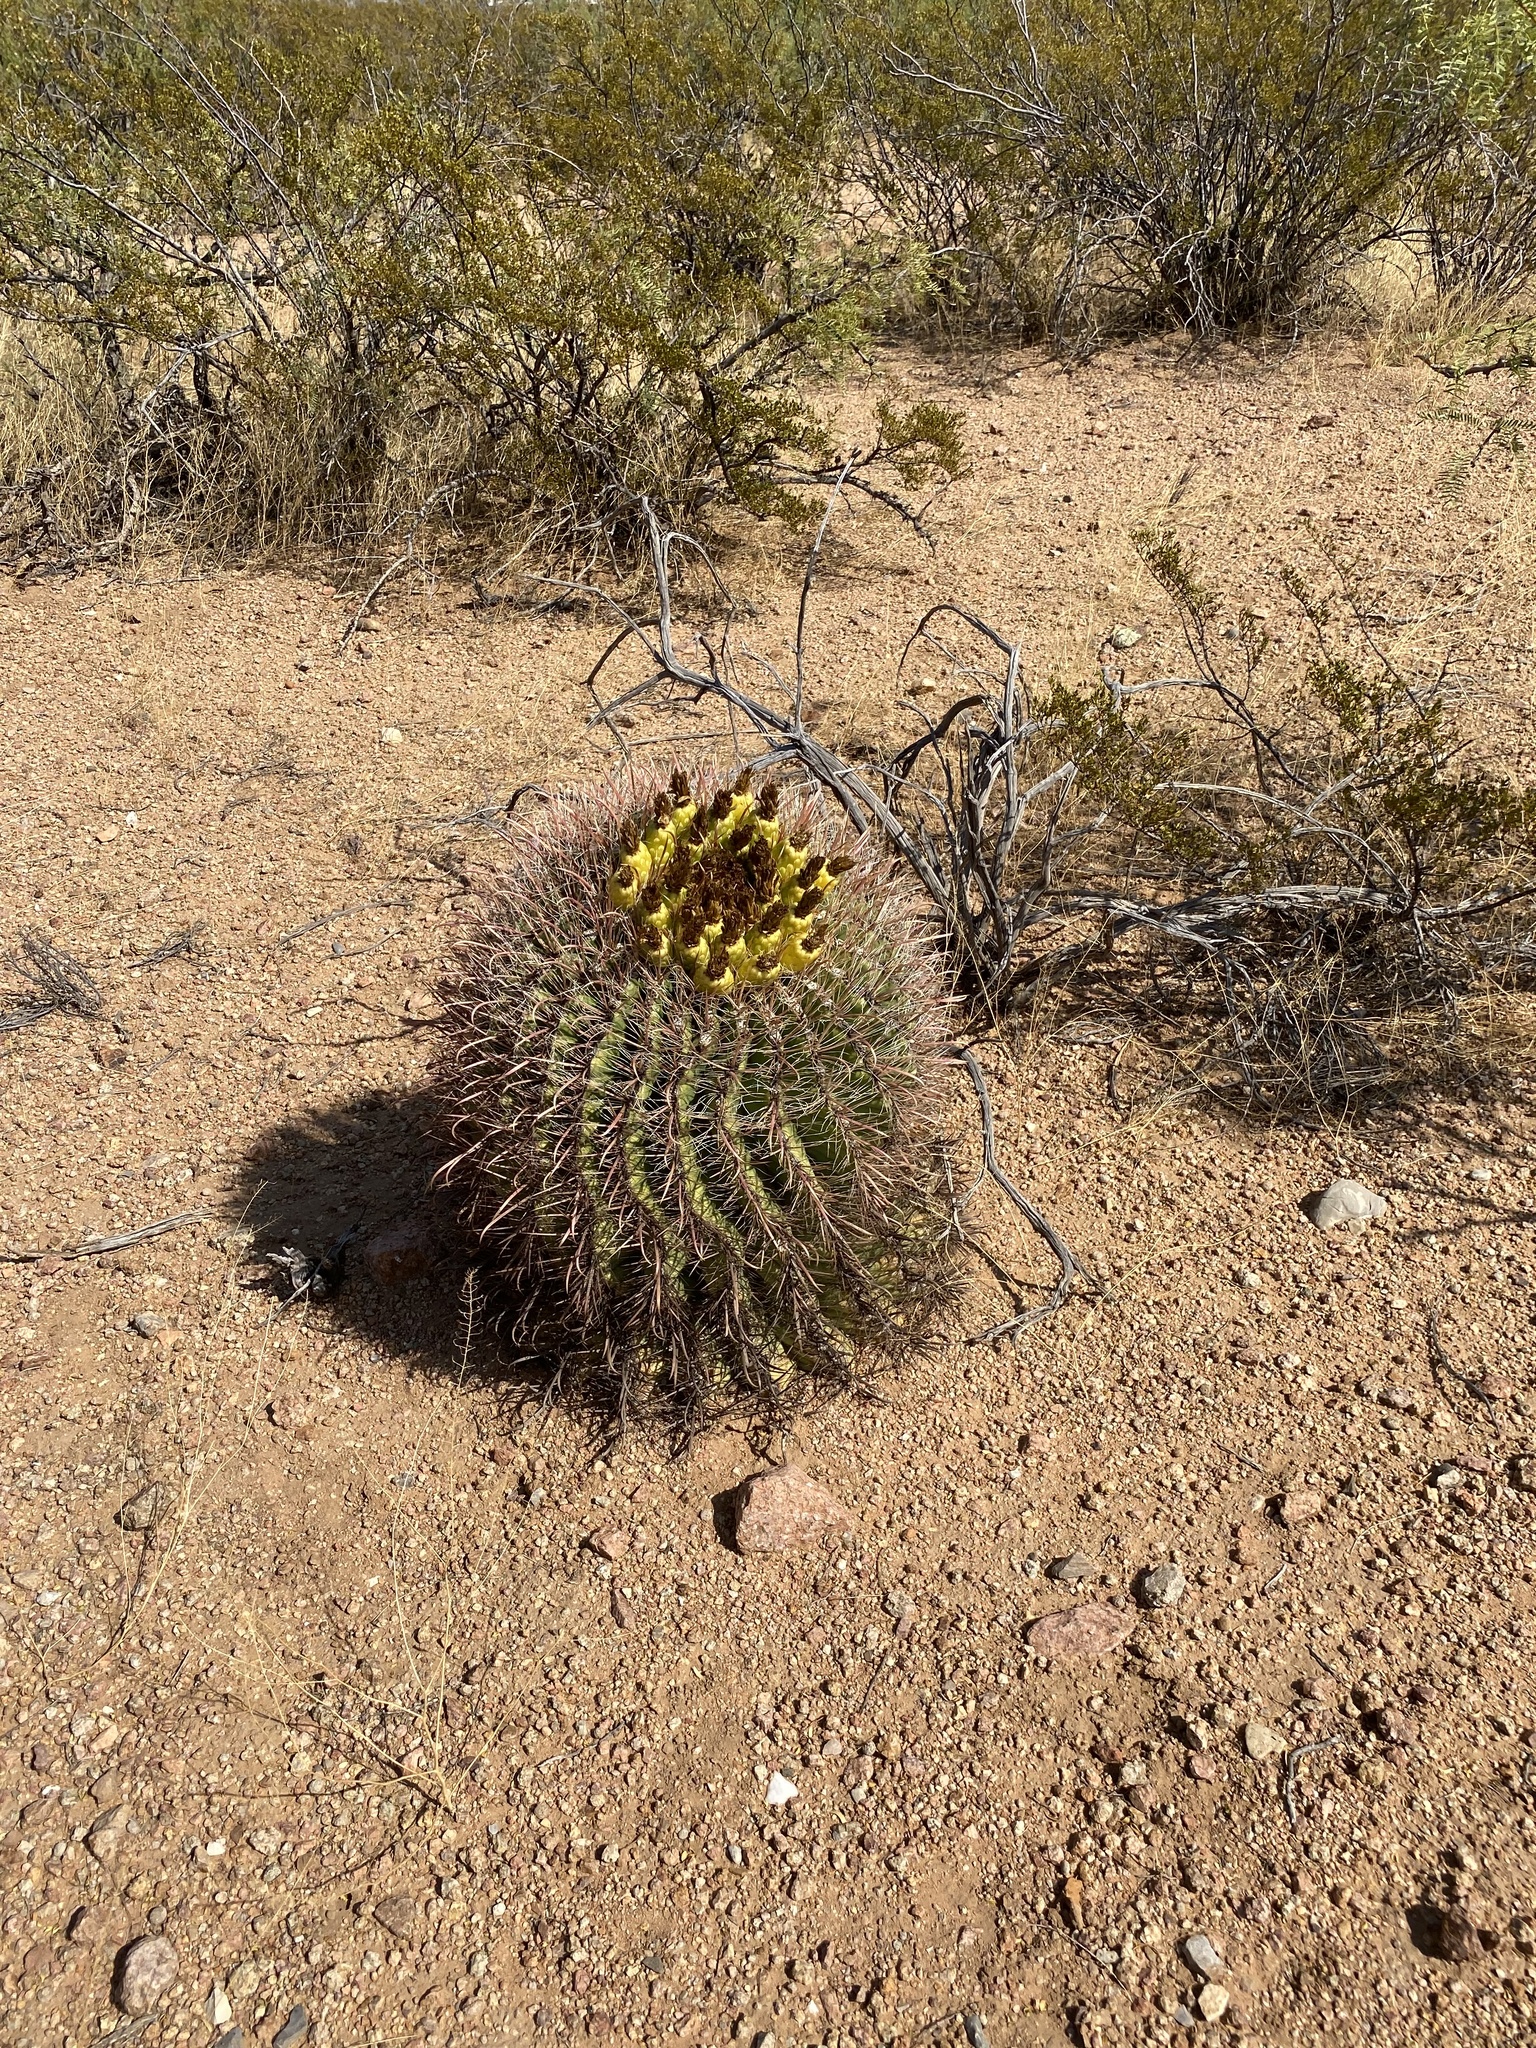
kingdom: Plantae
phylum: Tracheophyta
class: Magnoliopsida
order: Caryophyllales
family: Cactaceae
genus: Ferocactus
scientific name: Ferocactus wislizeni
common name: Candy barrel cactus
